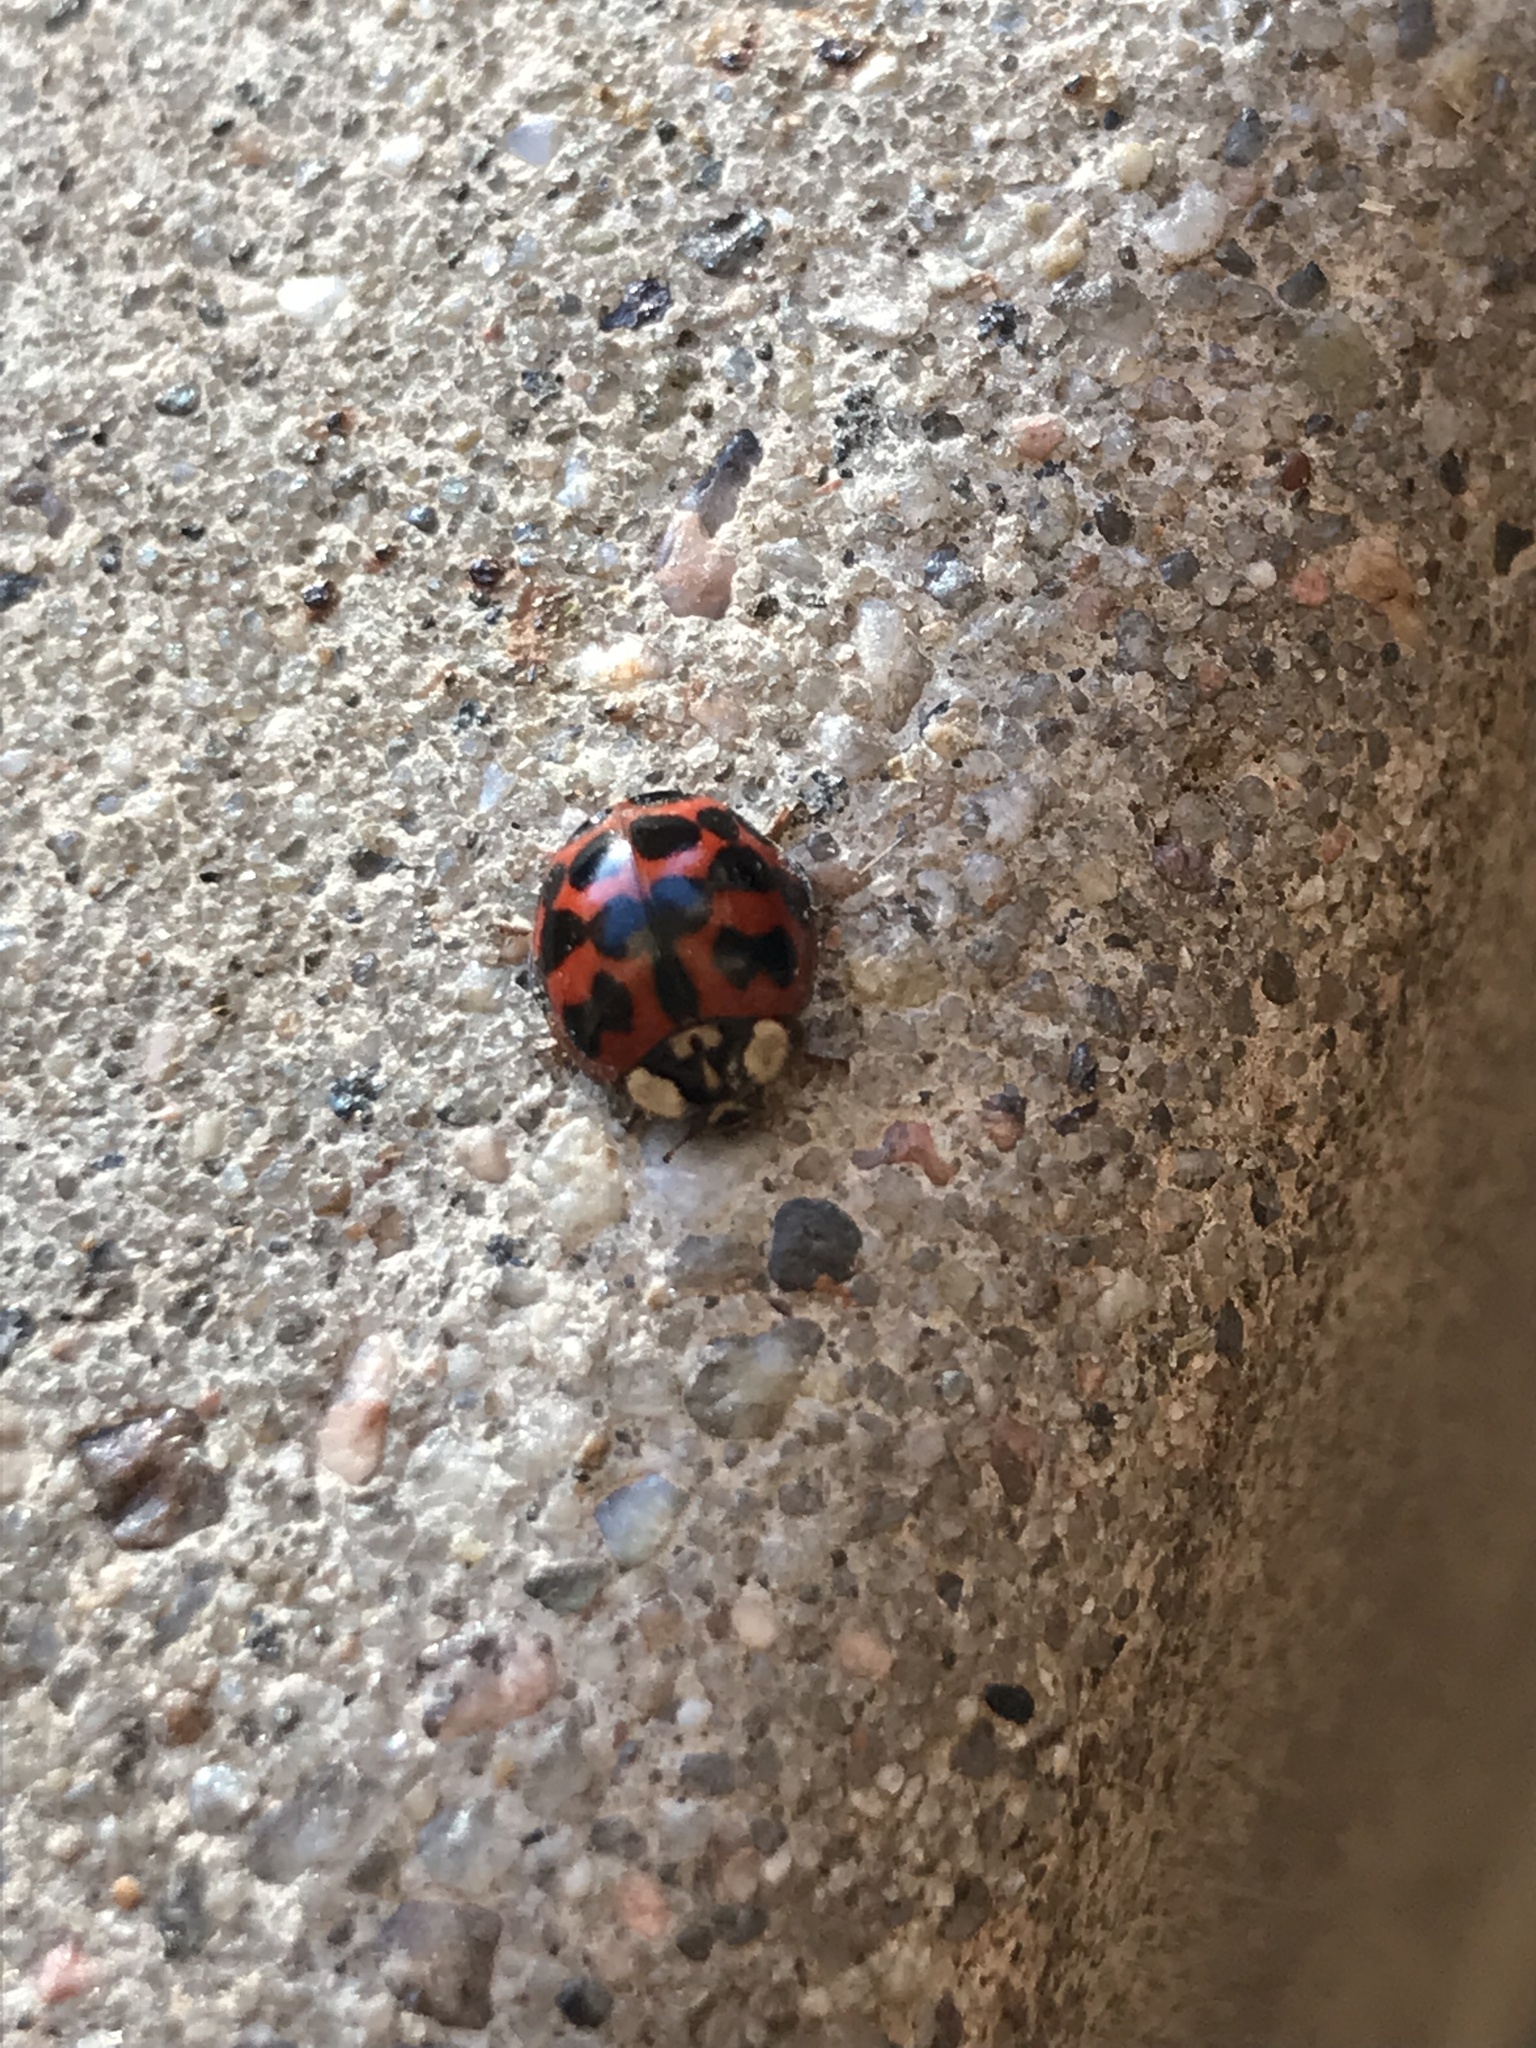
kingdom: Animalia
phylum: Arthropoda
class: Insecta
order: Coleoptera
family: Coccinellidae
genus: Harmonia
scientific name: Harmonia axyridis
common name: Harlequin ladybird
